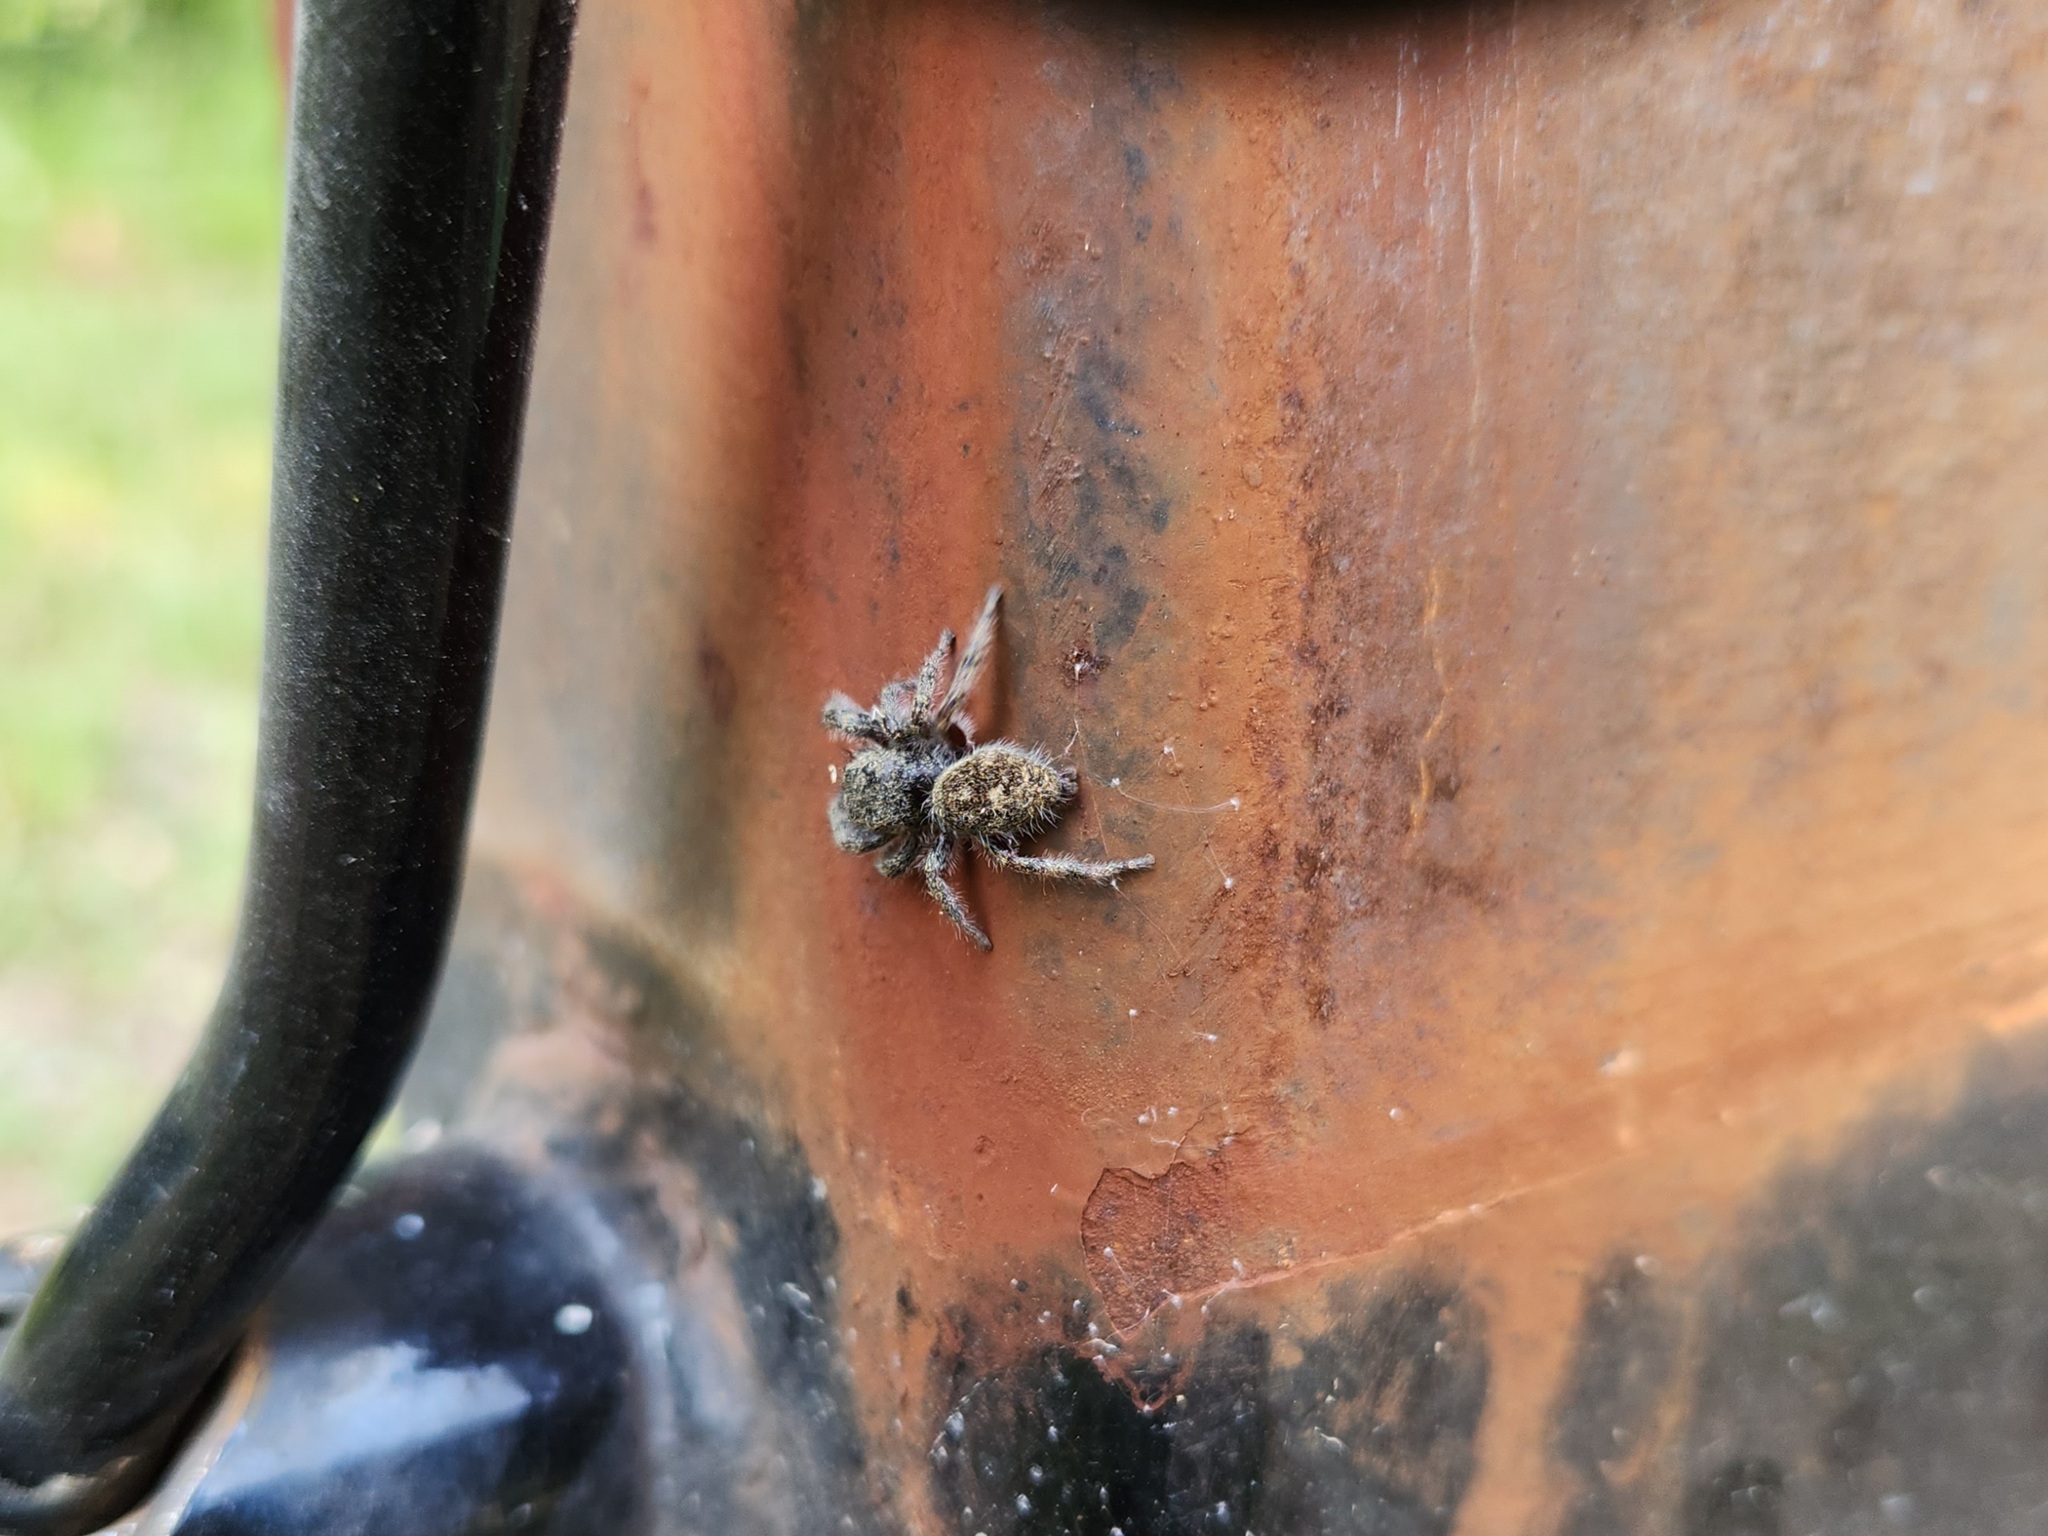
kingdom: Animalia
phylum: Arthropoda
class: Arachnida
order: Araneae
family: Salticidae
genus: Phidippus
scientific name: Phidippus princeps
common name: Grayish jumping spider
